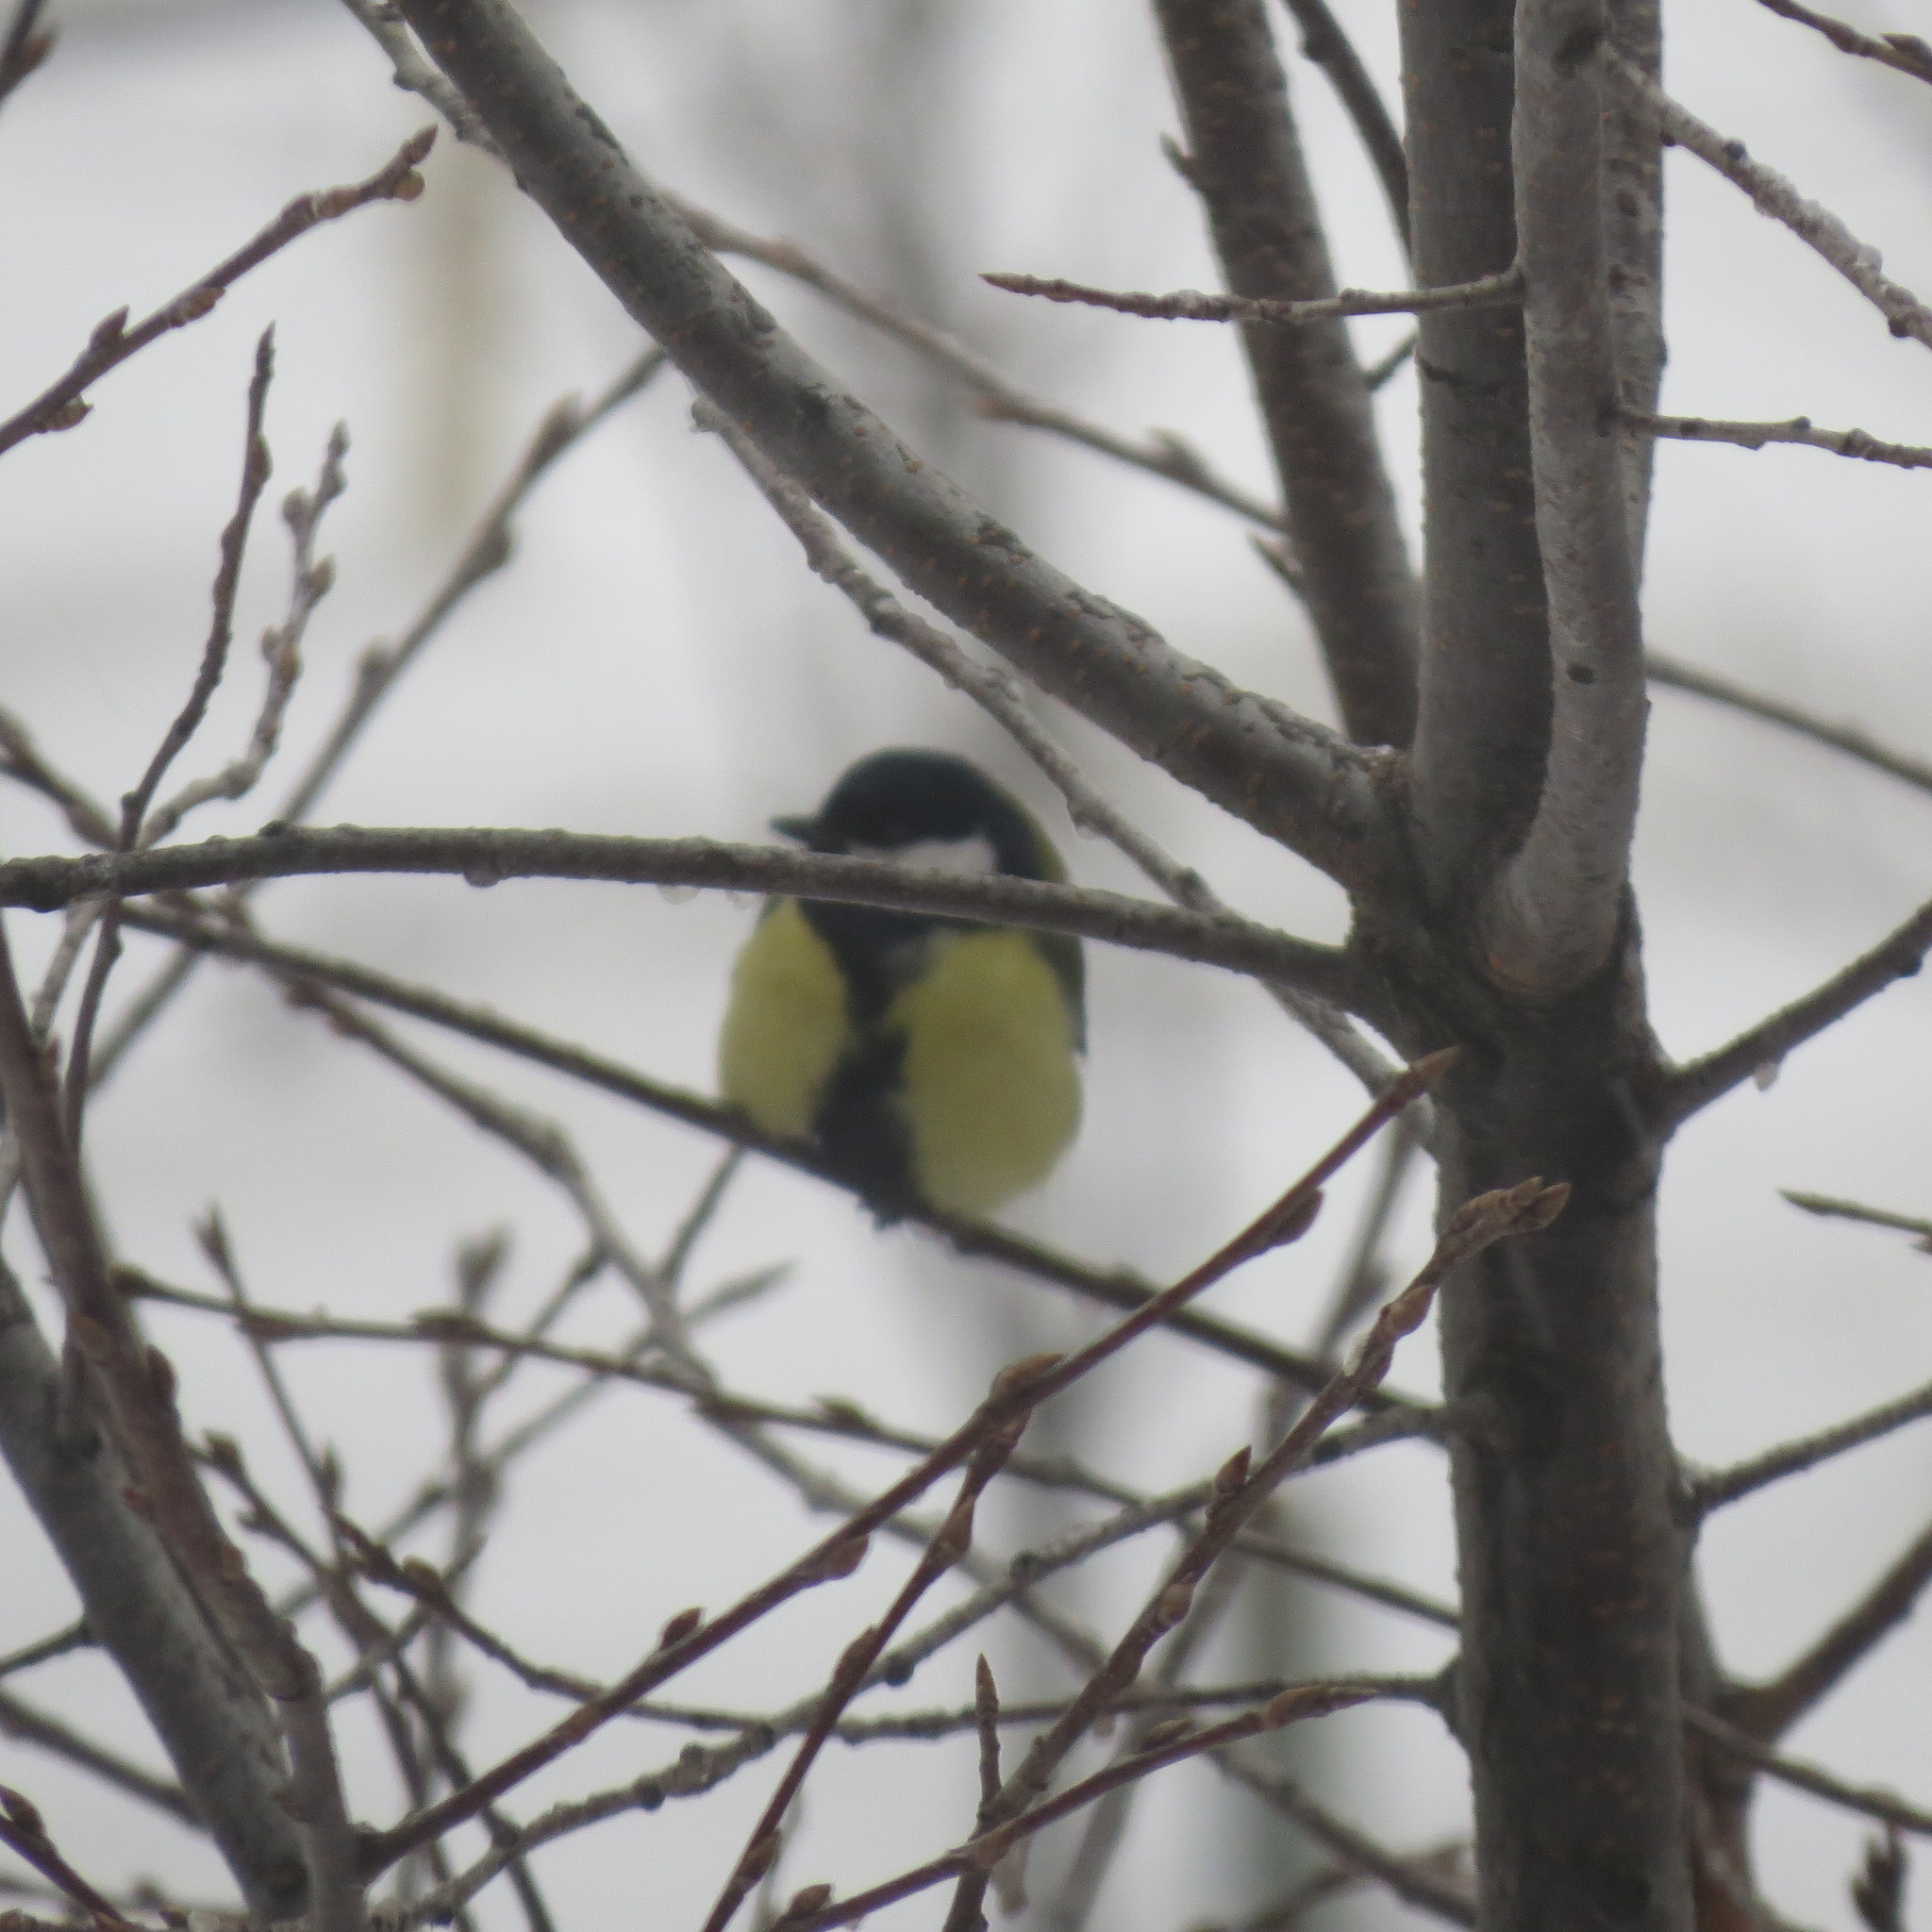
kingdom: Animalia
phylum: Chordata
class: Aves
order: Passeriformes
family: Paridae
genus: Parus
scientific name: Parus major
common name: Great tit
